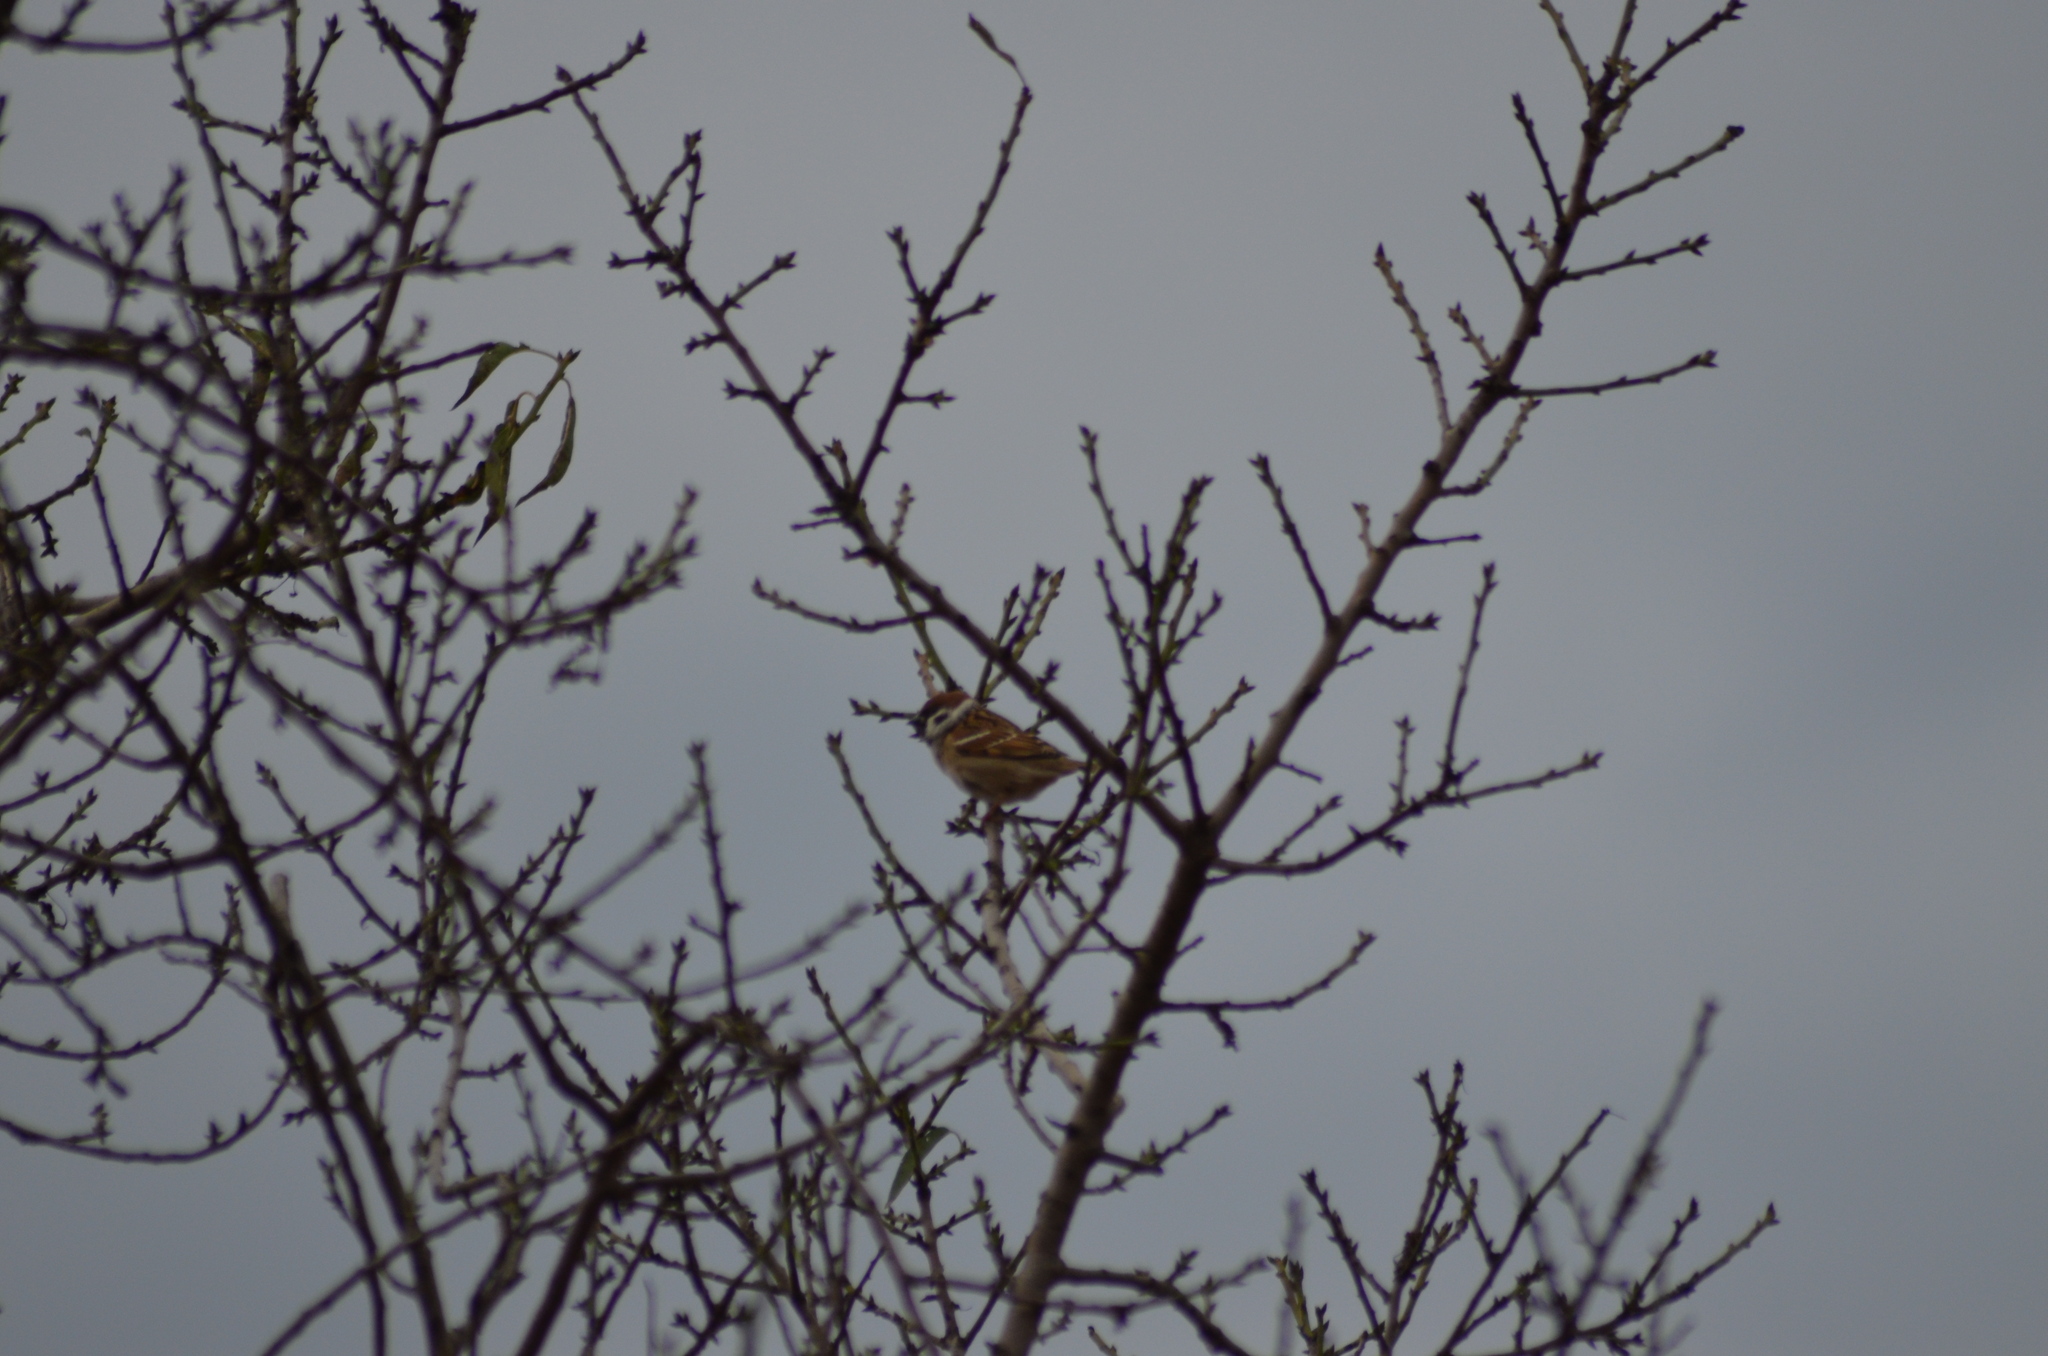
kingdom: Animalia
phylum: Chordata
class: Aves
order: Passeriformes
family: Passeridae
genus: Passer
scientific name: Passer montanus
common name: Eurasian tree sparrow
